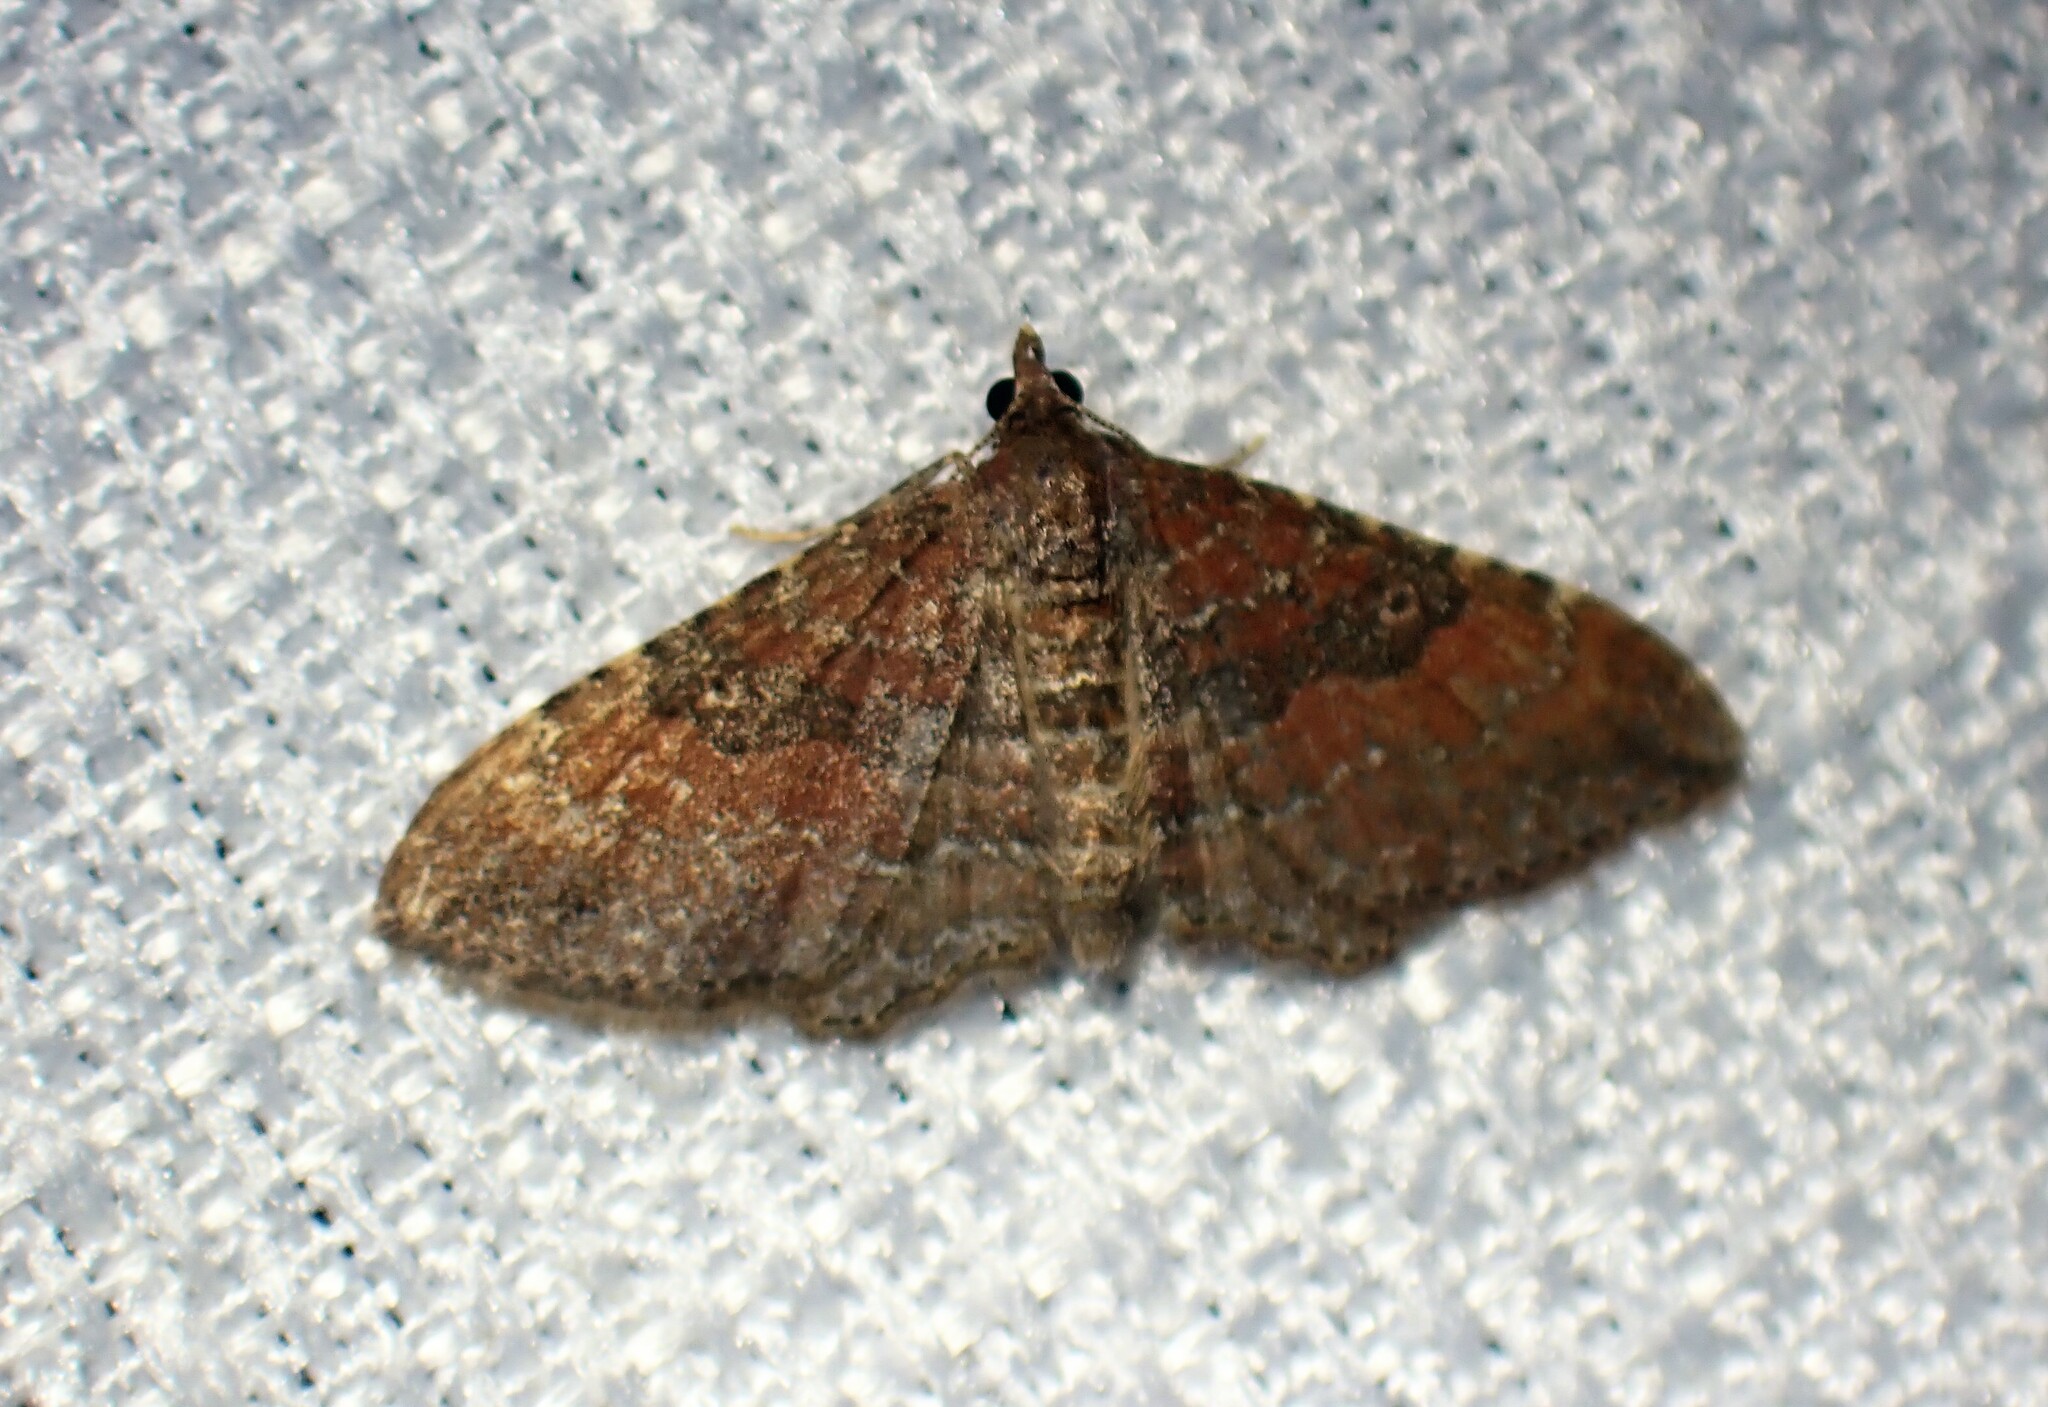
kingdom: Animalia
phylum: Arthropoda
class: Insecta
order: Lepidoptera
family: Geometridae
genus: Orthonama
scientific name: Orthonama obstipata
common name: The gem
